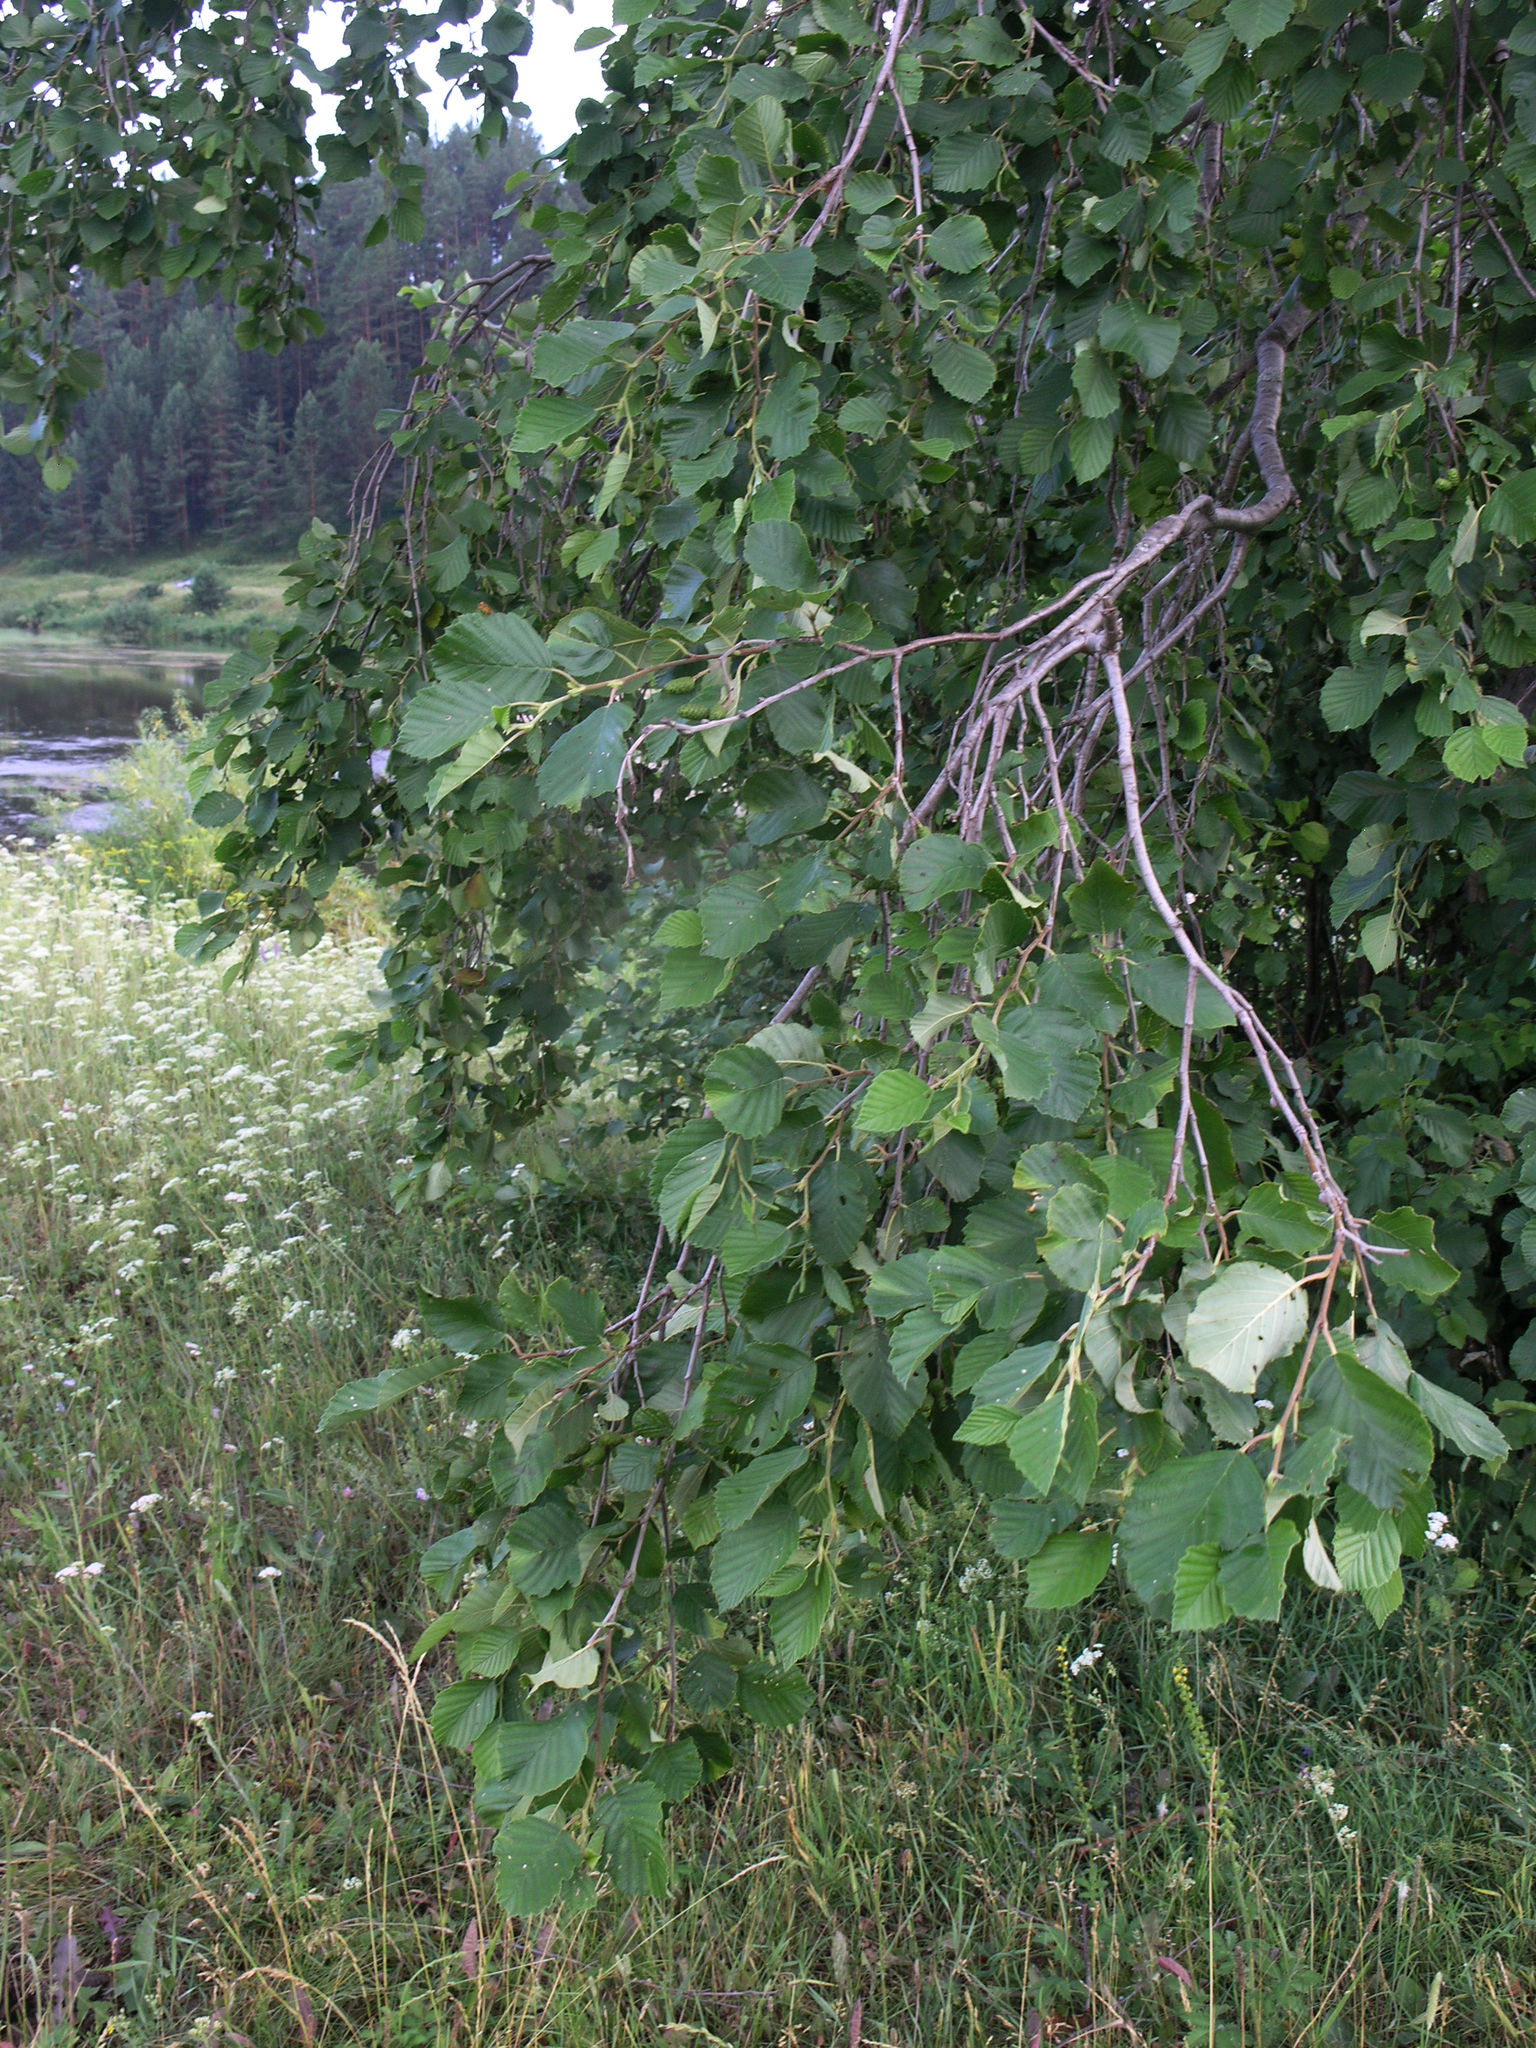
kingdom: Plantae
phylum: Tracheophyta
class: Magnoliopsida
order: Fagales
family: Betulaceae
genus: Alnus
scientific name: Alnus incana
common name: Grey alder
